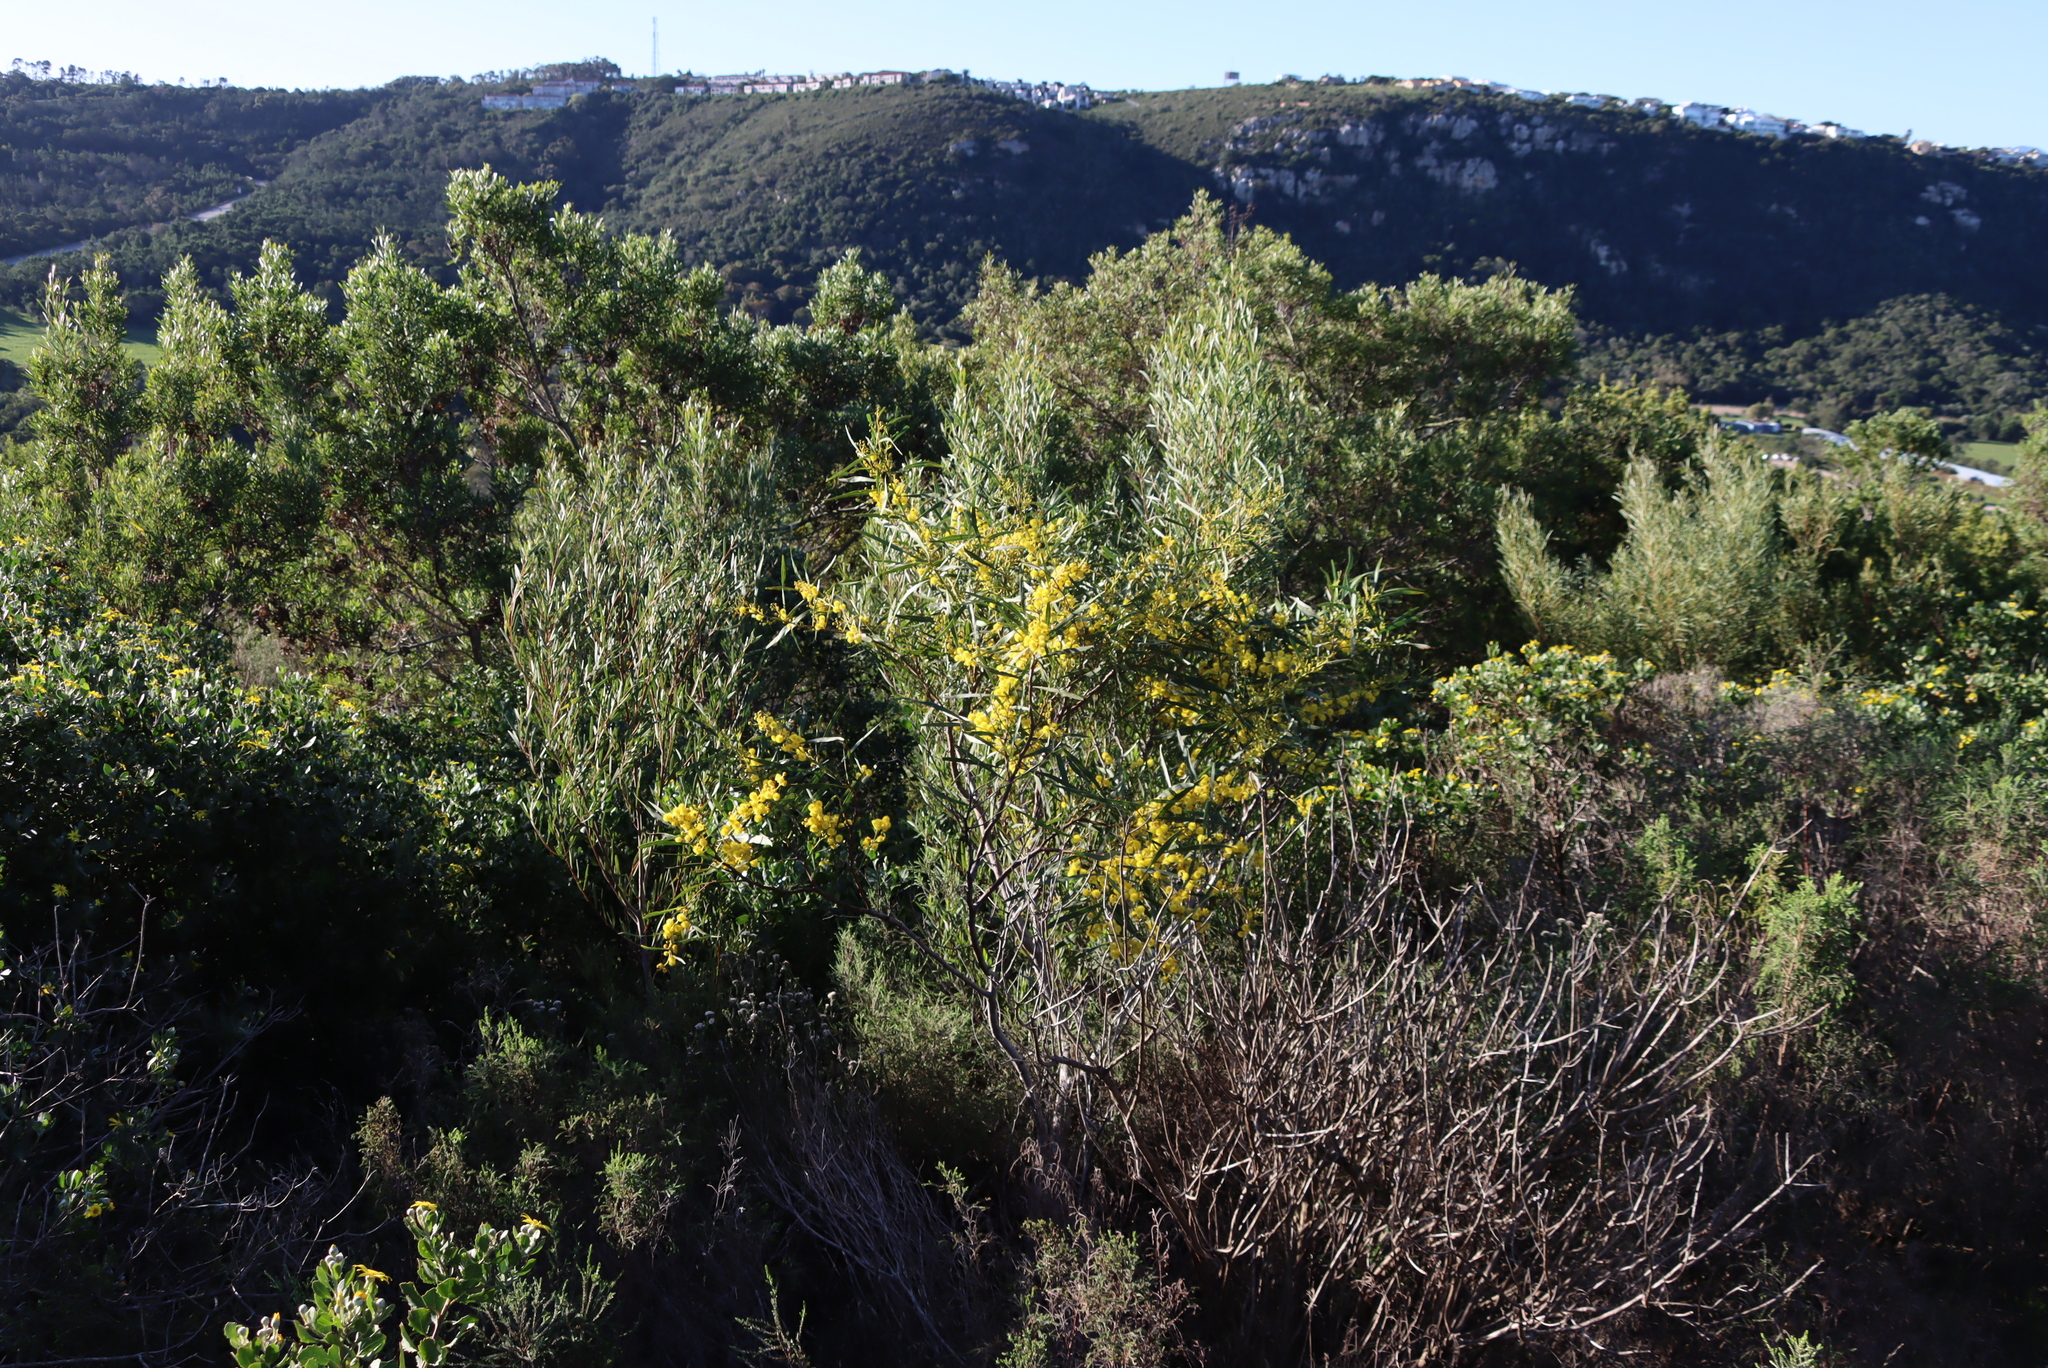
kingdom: Plantae
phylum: Tracheophyta
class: Magnoliopsida
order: Fabales
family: Fabaceae
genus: Acacia
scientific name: Acacia saligna
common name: Orange wattle
